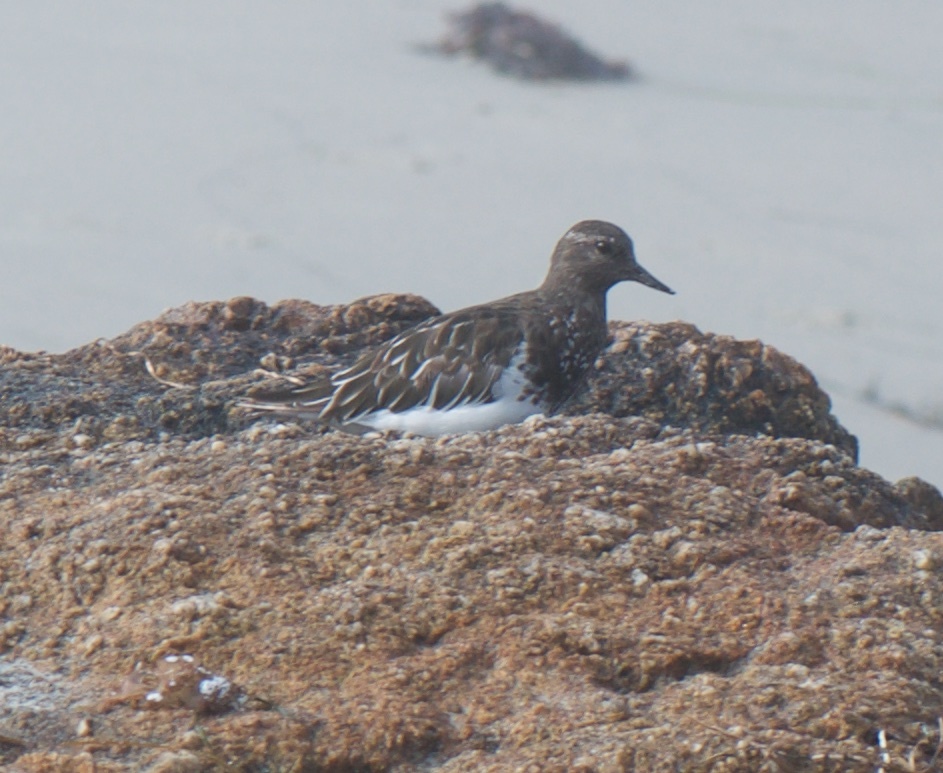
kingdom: Animalia
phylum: Chordata
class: Aves
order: Charadriiformes
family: Scolopacidae
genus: Arenaria
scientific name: Arenaria melanocephala
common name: Black turnstone
